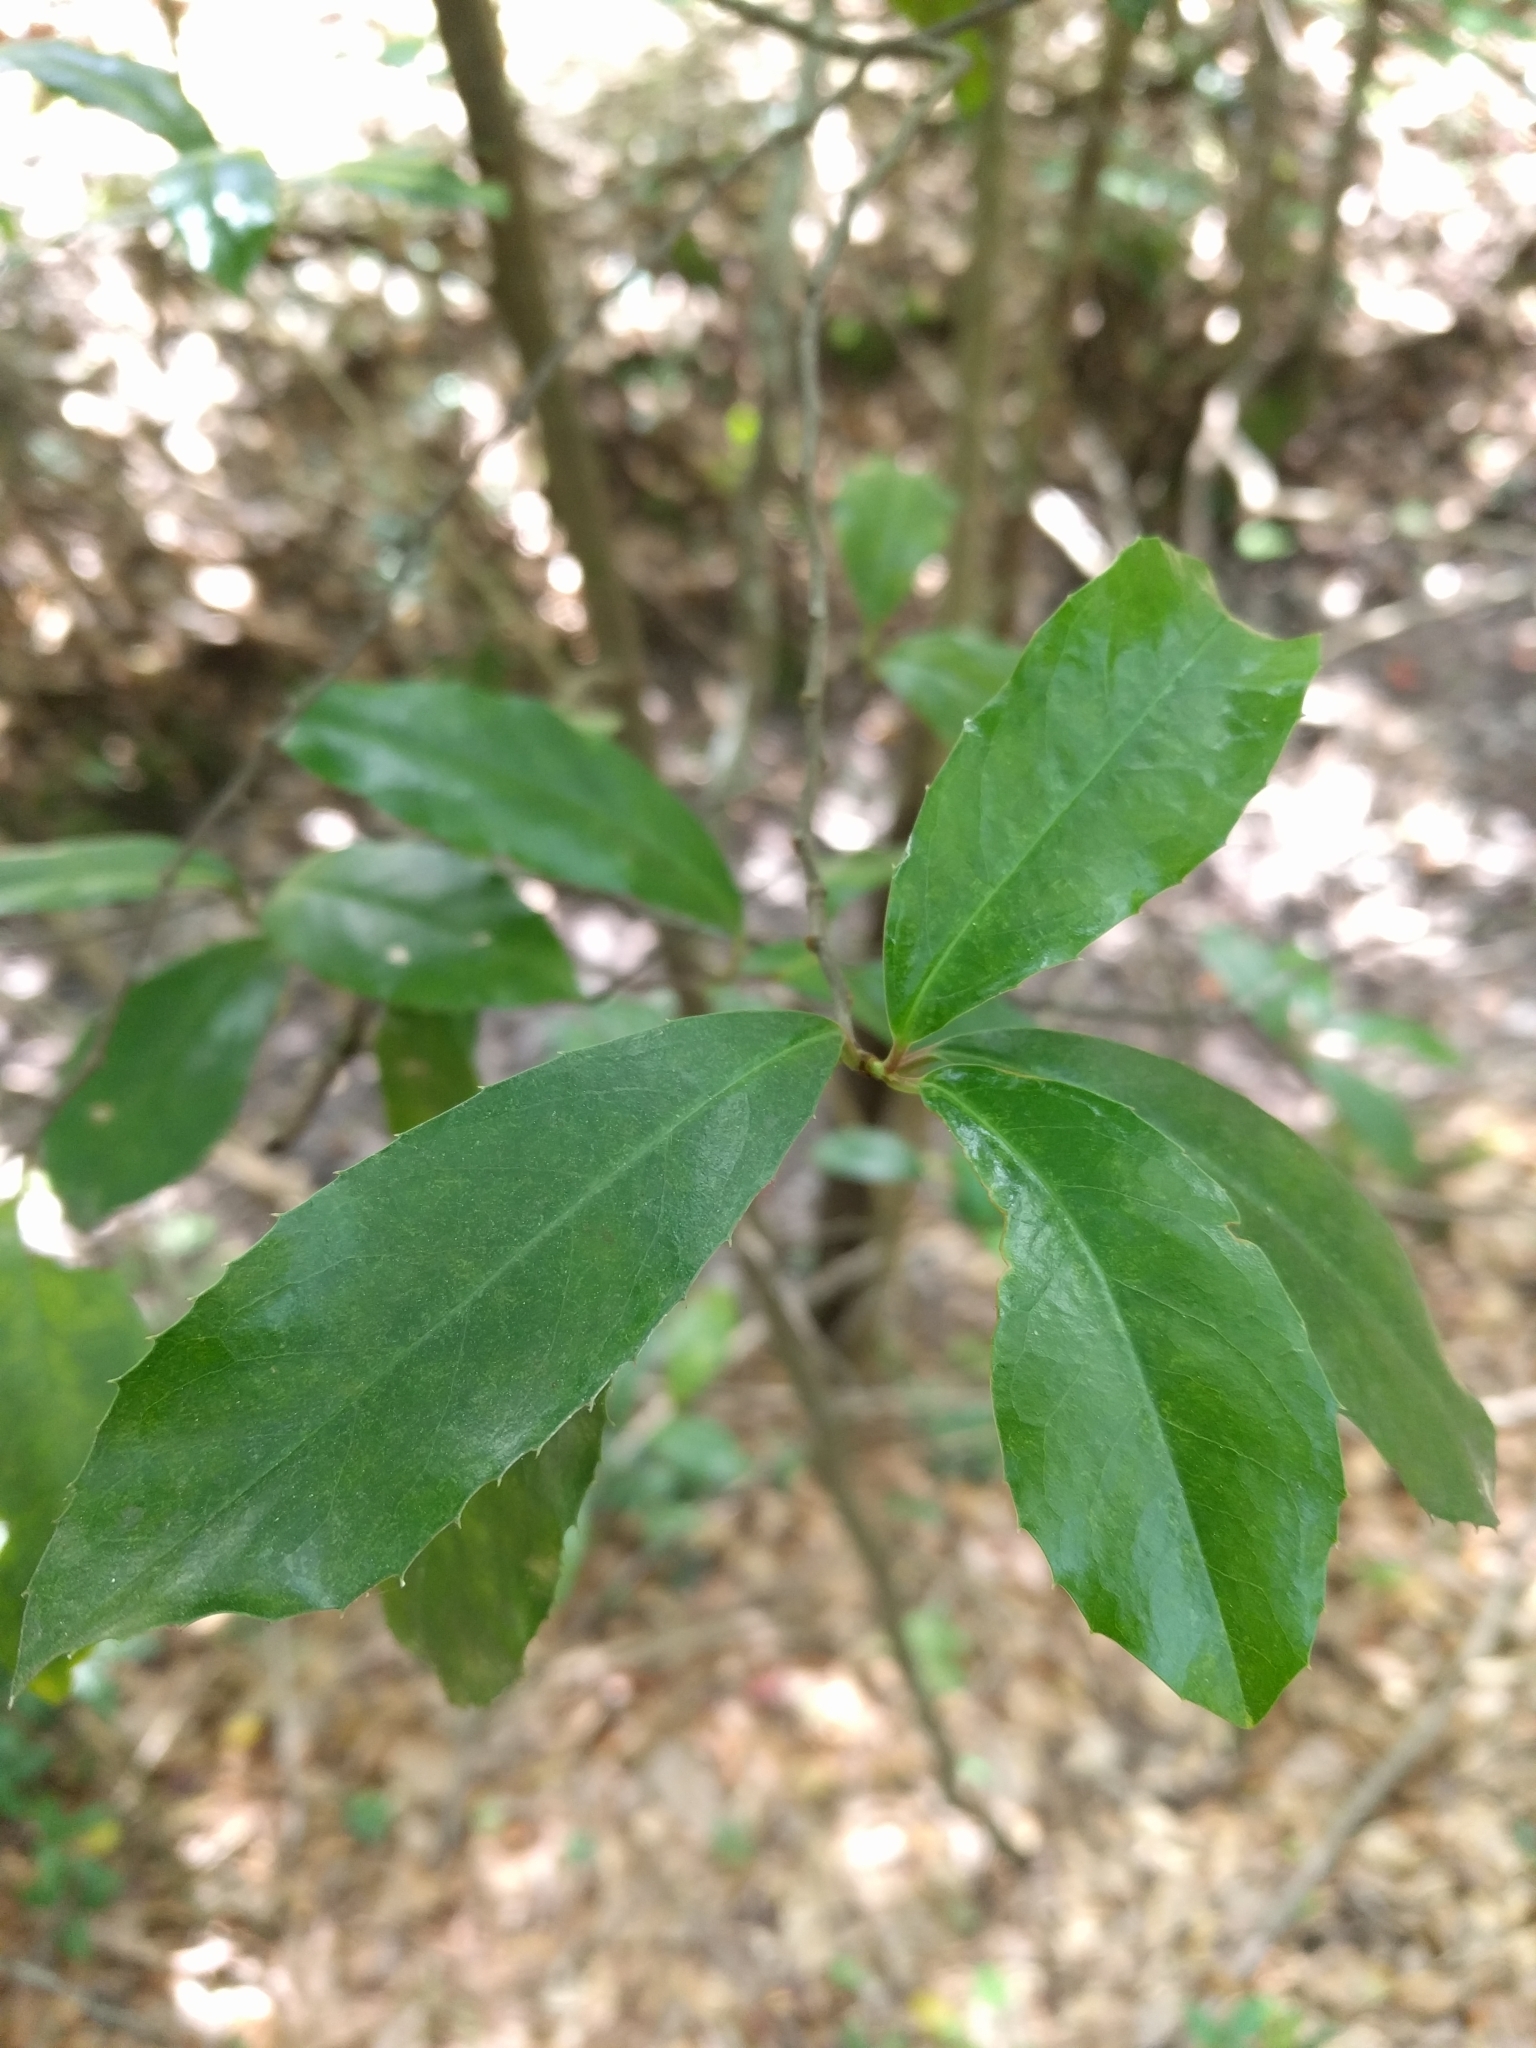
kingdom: Plantae
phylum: Tracheophyta
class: Magnoliopsida
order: Rosales
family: Rosaceae
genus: Prunus
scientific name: Prunus caroliniana
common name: Carolina laurel cherry
